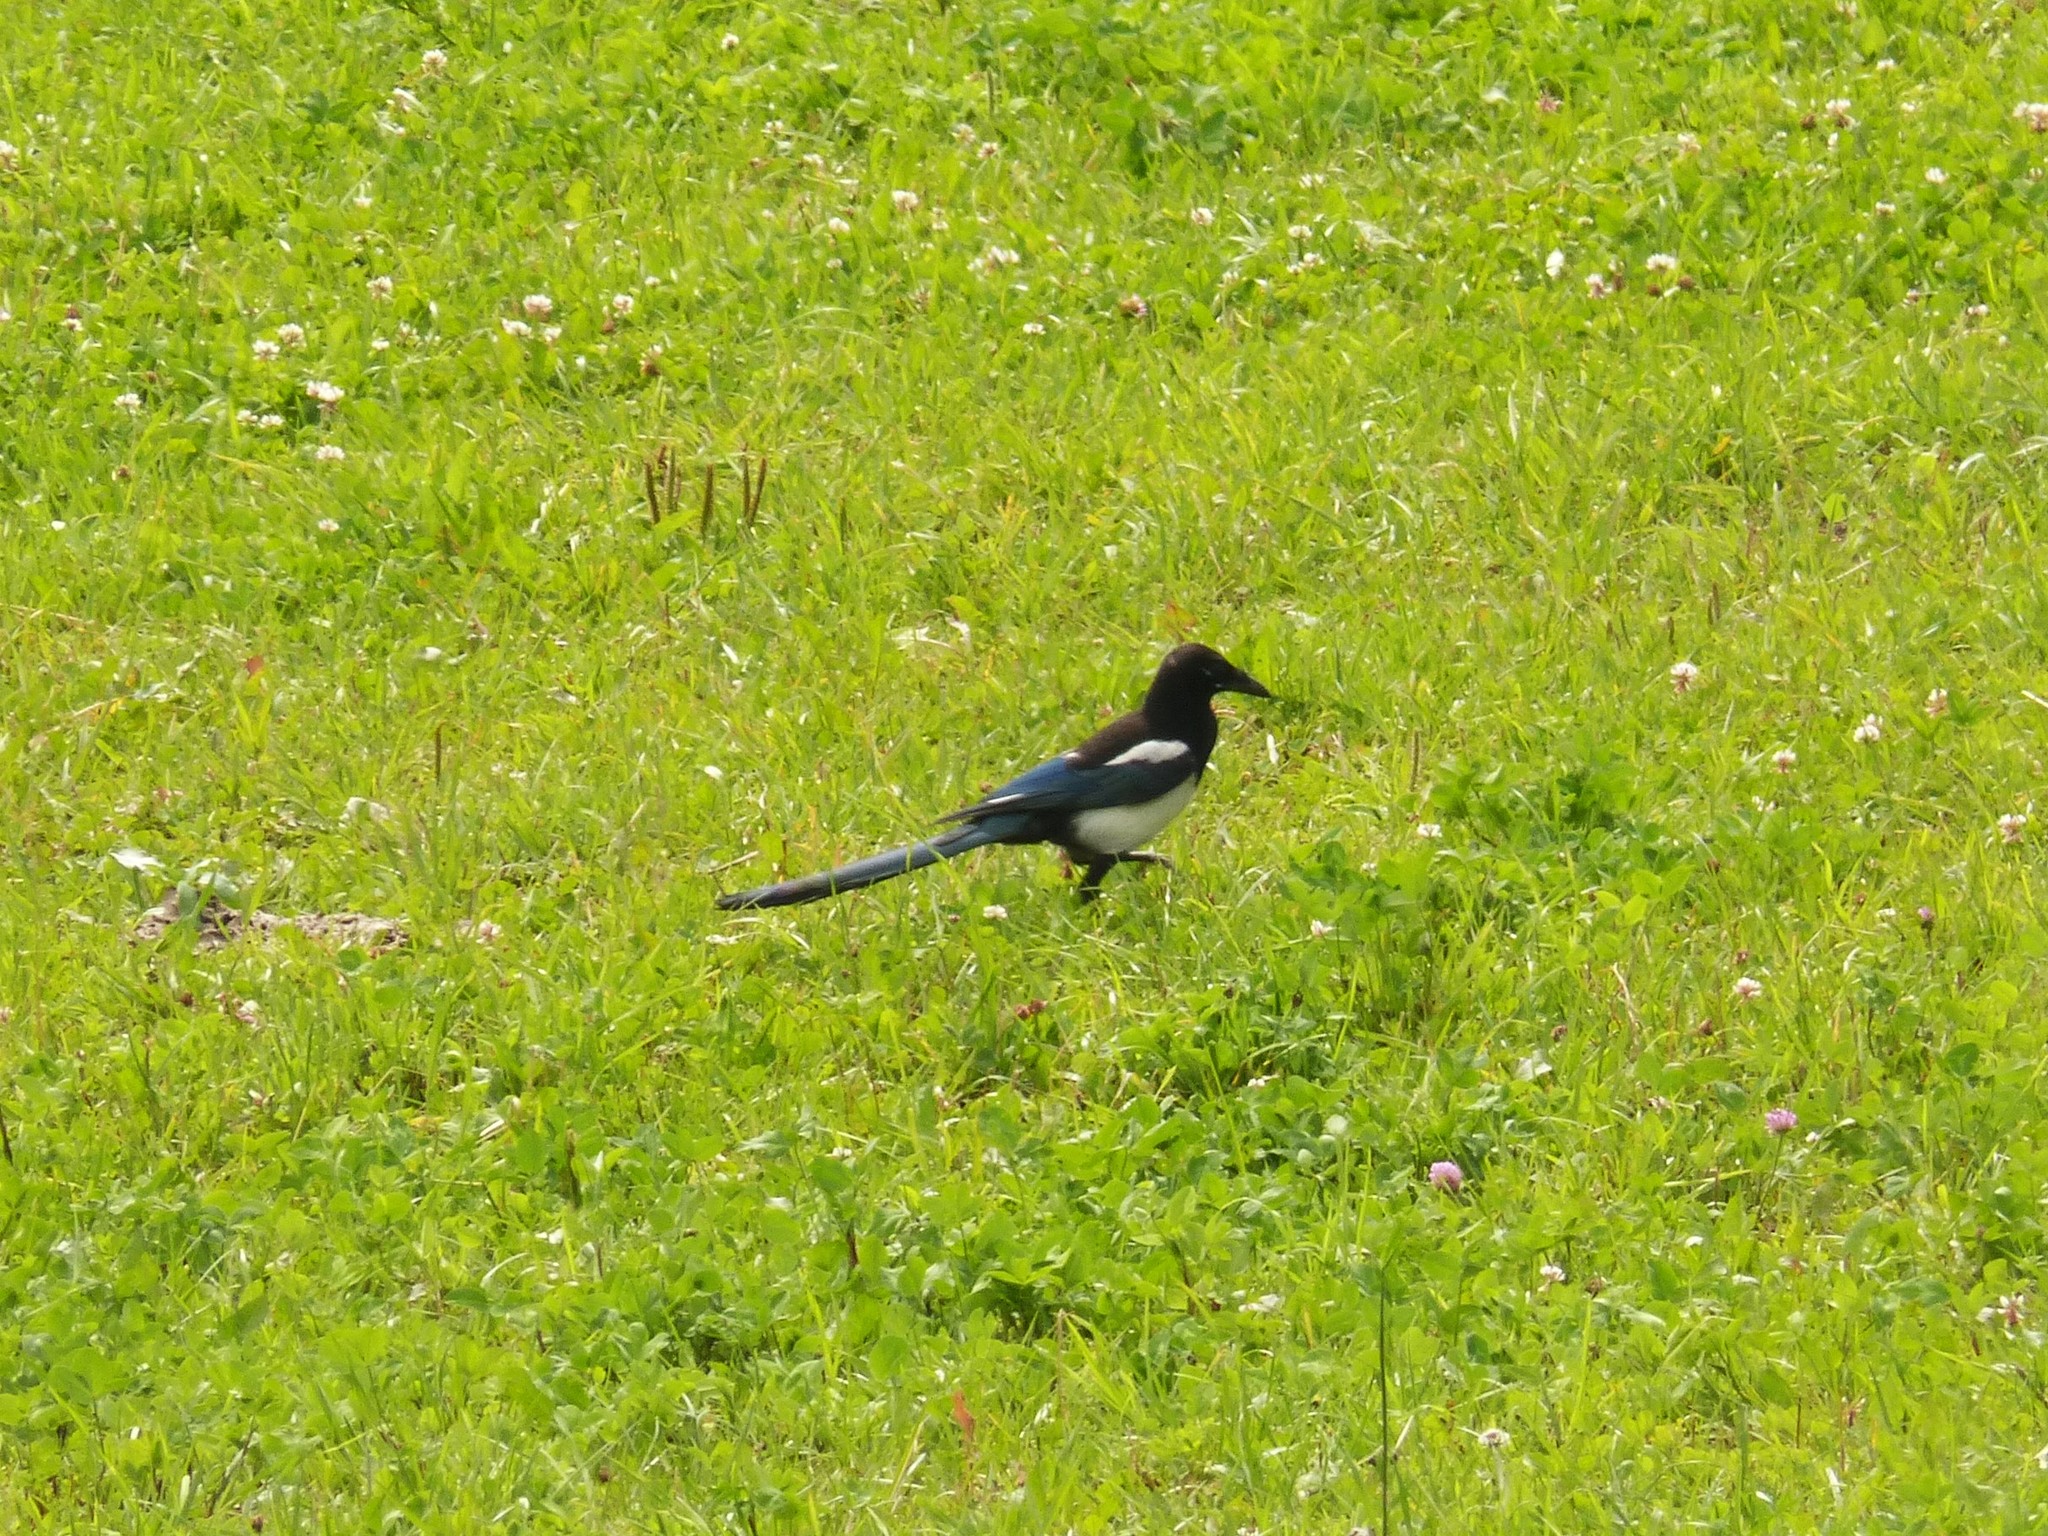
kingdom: Animalia
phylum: Chordata
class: Aves
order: Passeriformes
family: Corvidae
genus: Pica
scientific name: Pica pica
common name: Eurasian magpie
